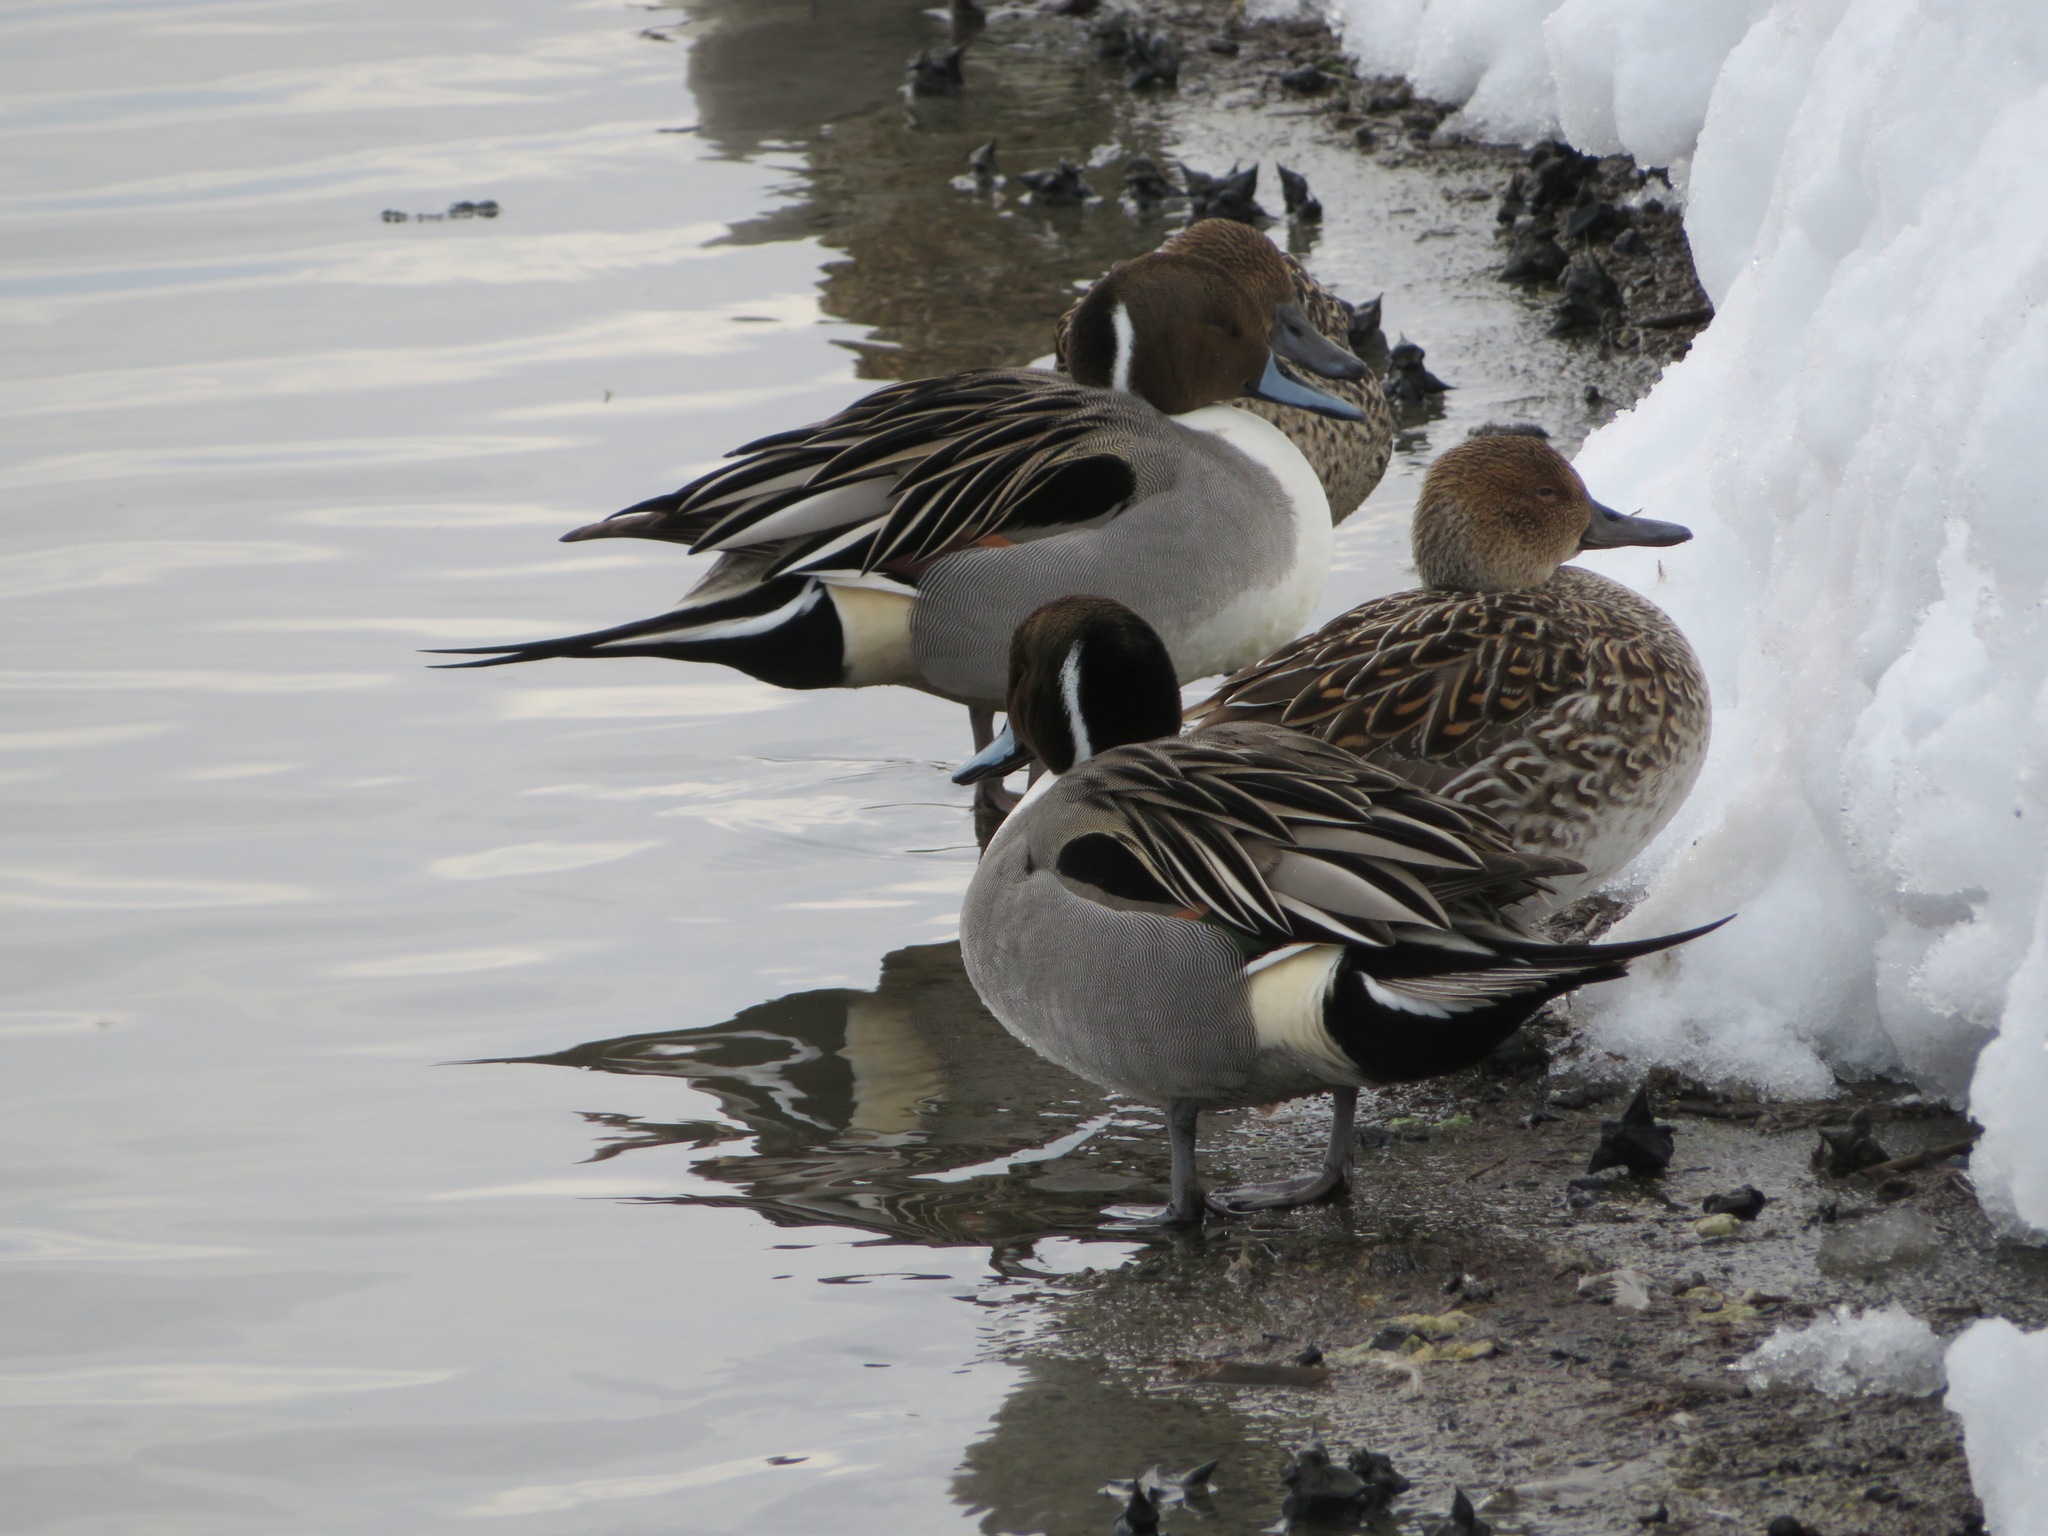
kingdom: Animalia
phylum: Chordata
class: Aves
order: Anseriformes
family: Anatidae
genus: Anas
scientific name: Anas acuta
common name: Northern pintail
